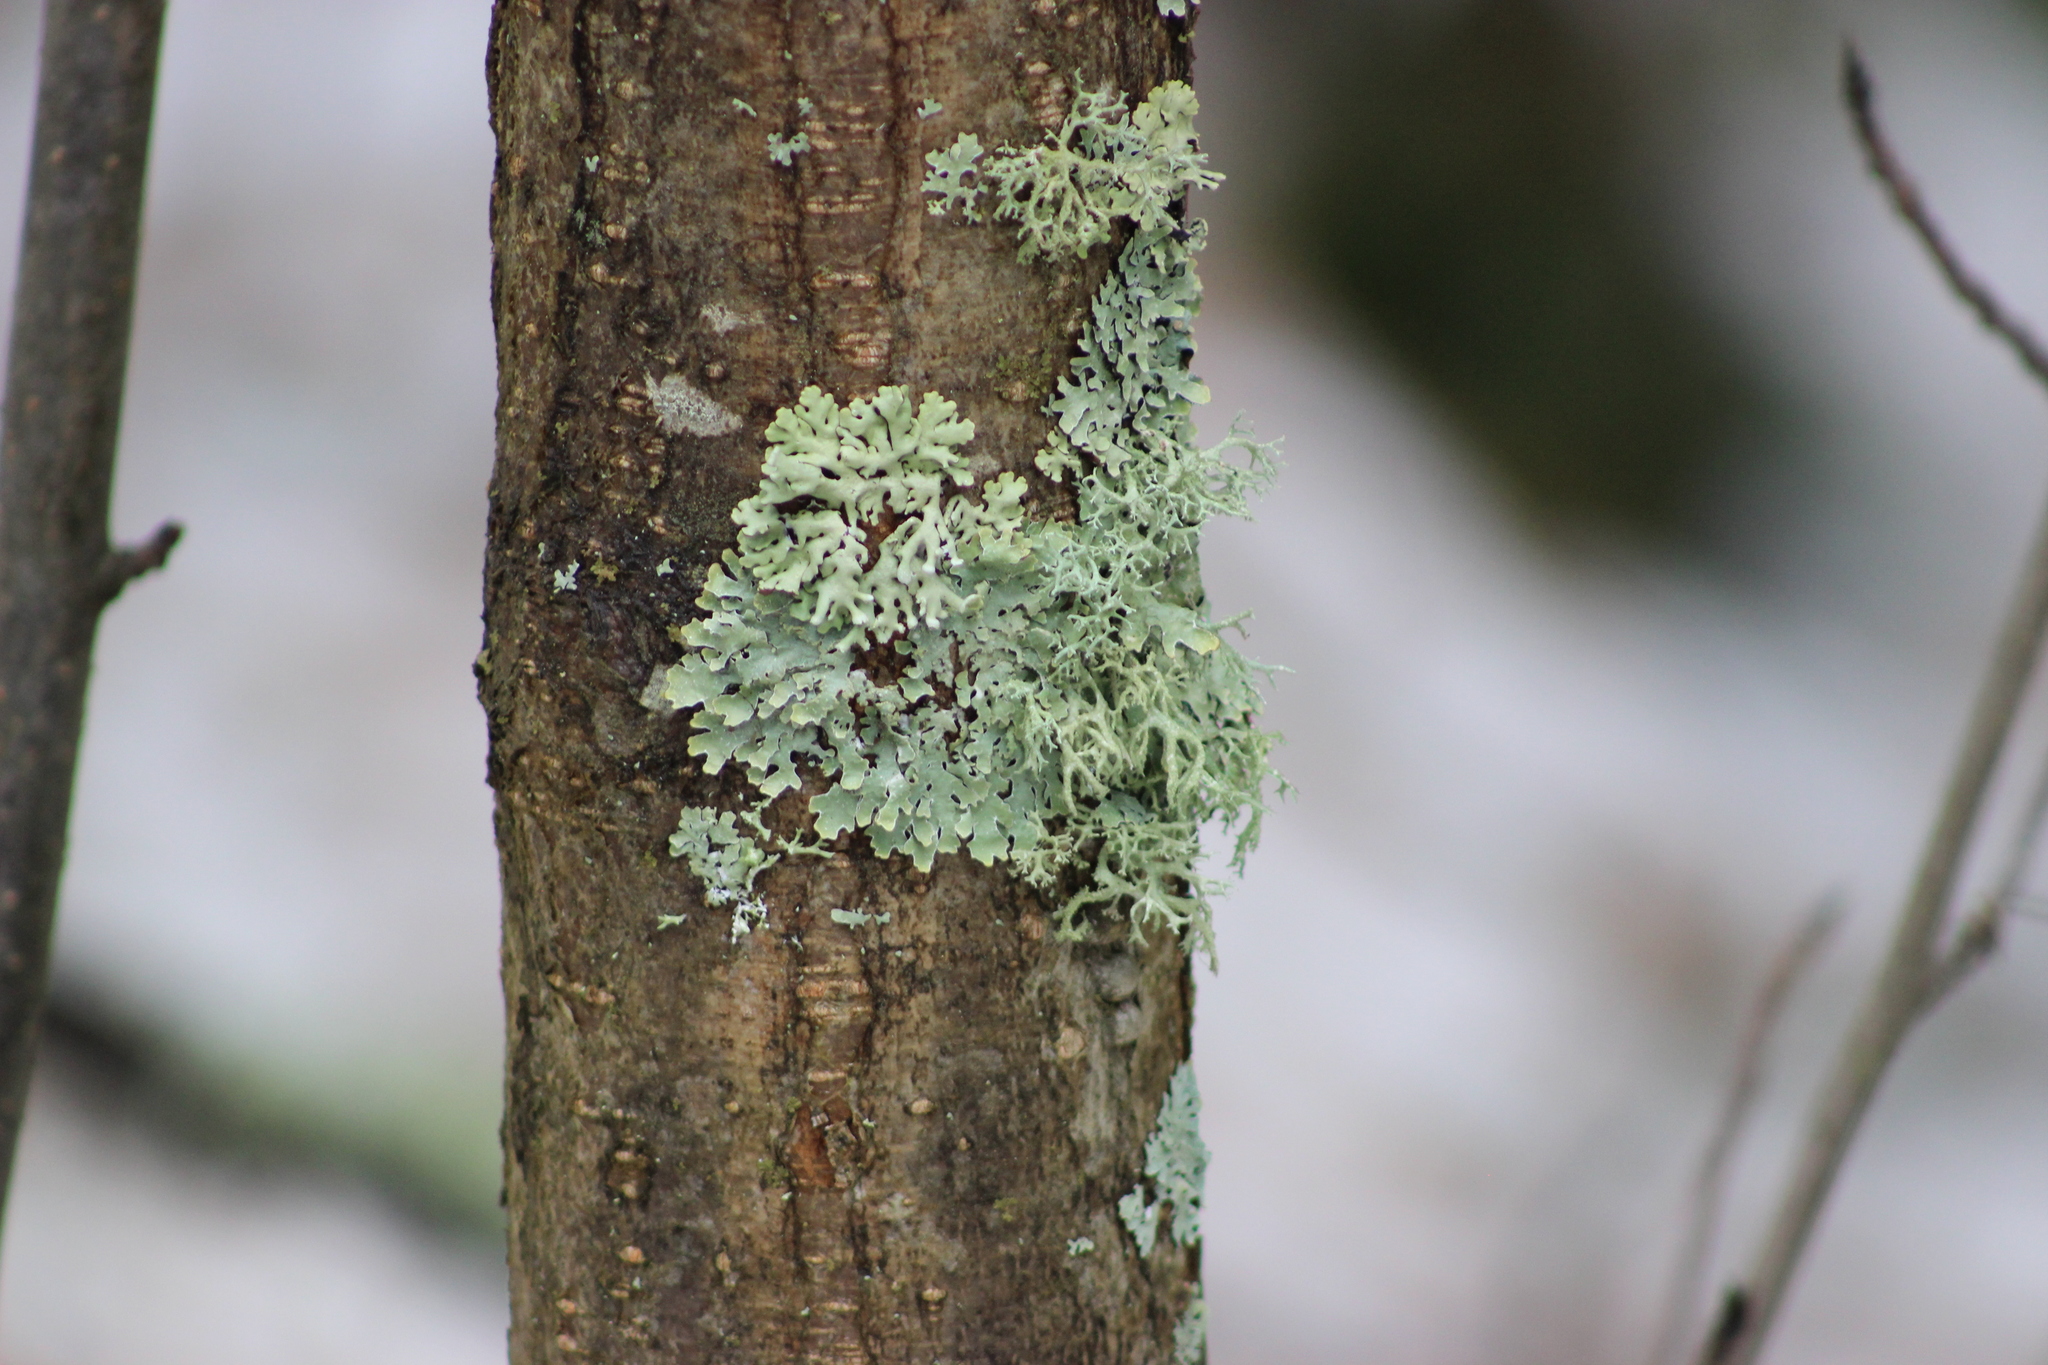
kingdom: Fungi
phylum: Ascomycota
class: Lecanoromycetes
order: Lecanorales
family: Parmeliaceae
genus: Hypogymnia
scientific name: Hypogymnia physodes
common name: Dark crottle
